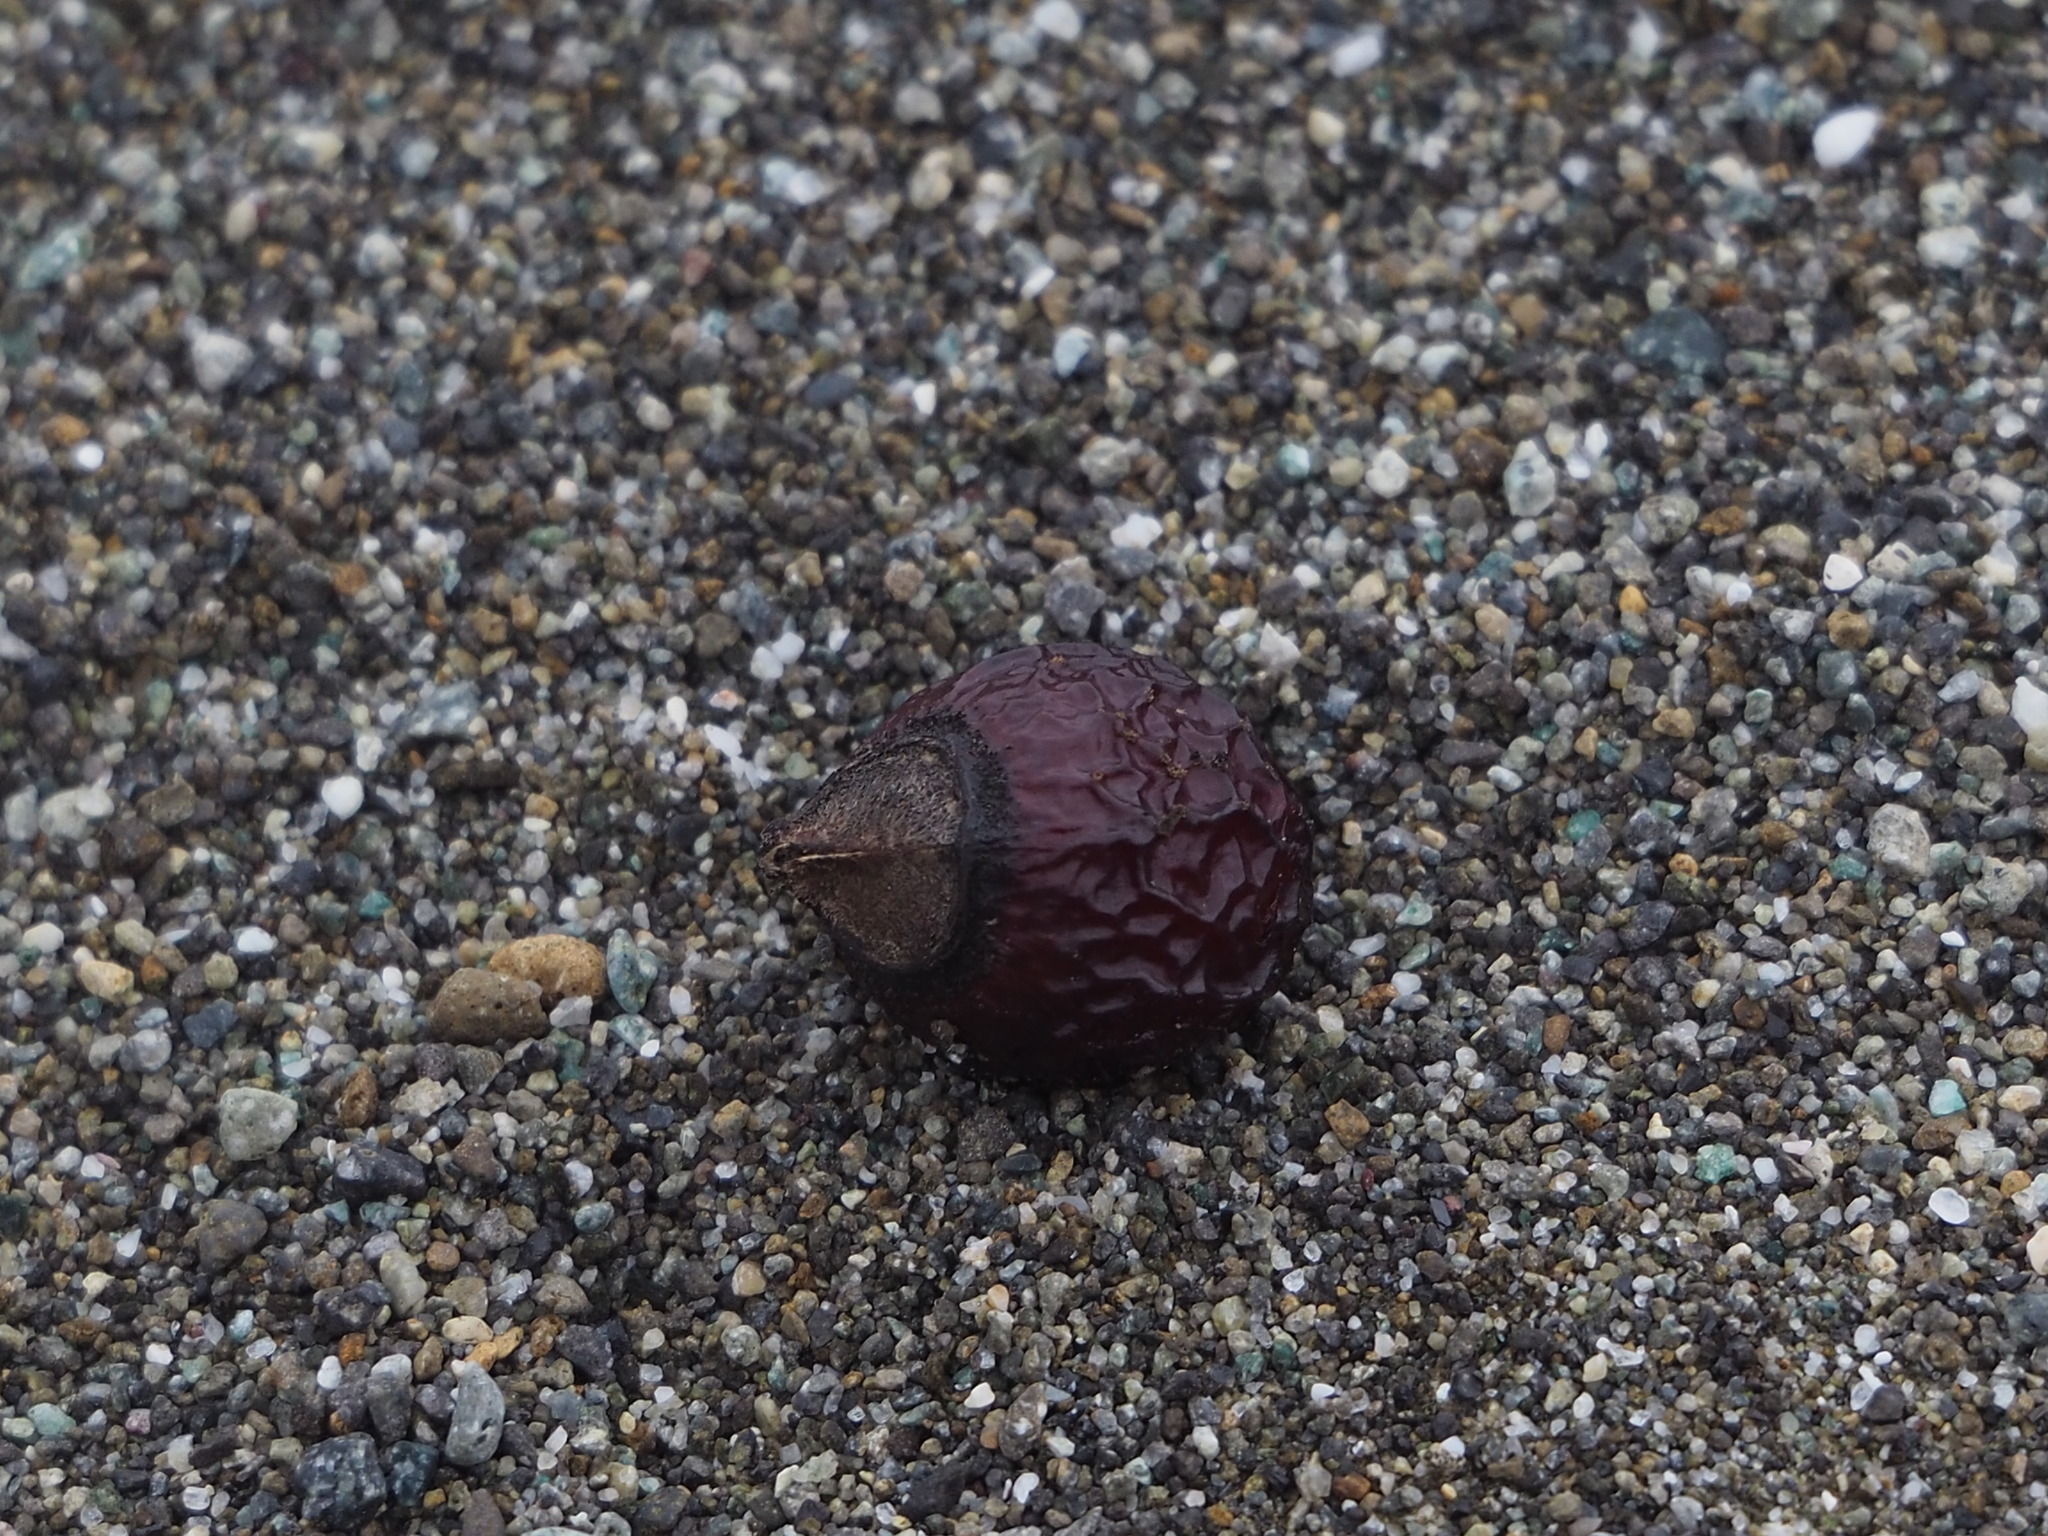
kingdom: Plantae
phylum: Tracheophyta
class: Magnoliopsida
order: Sapindales
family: Sapindaceae
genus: Sapindus
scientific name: Sapindus mukorossi
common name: Chinese soapberry
